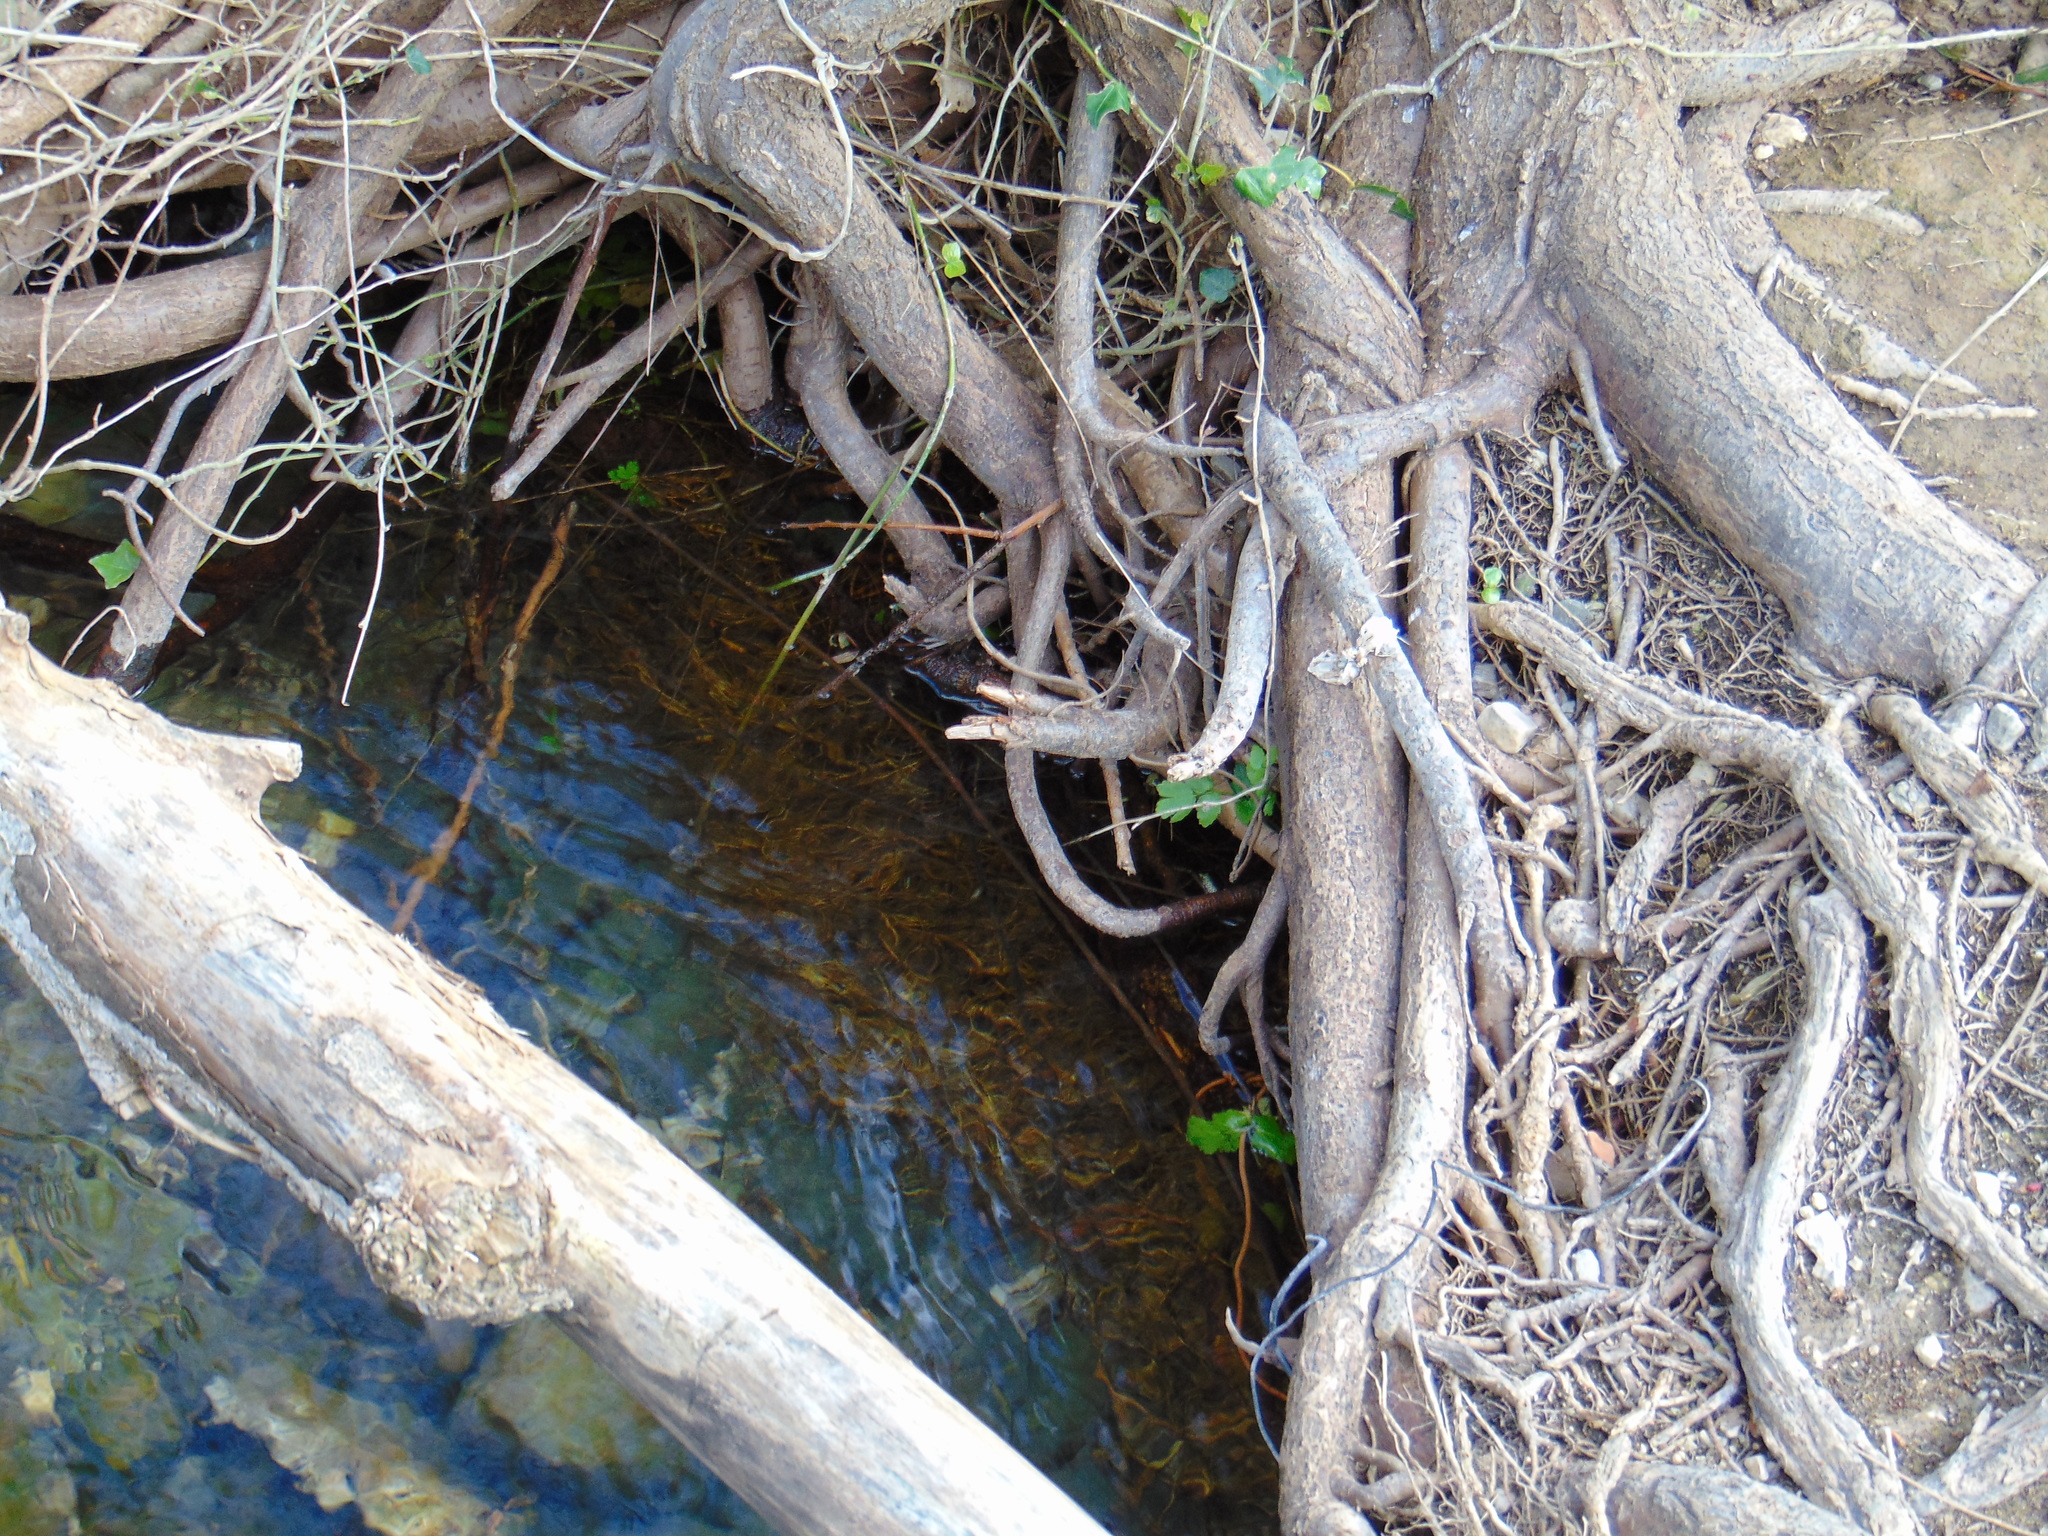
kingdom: Plantae
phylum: Tracheophyta
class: Magnoliopsida
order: Rosales
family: Ulmaceae
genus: Ulmus
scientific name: Ulmus minor
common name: Small-leaved elm
